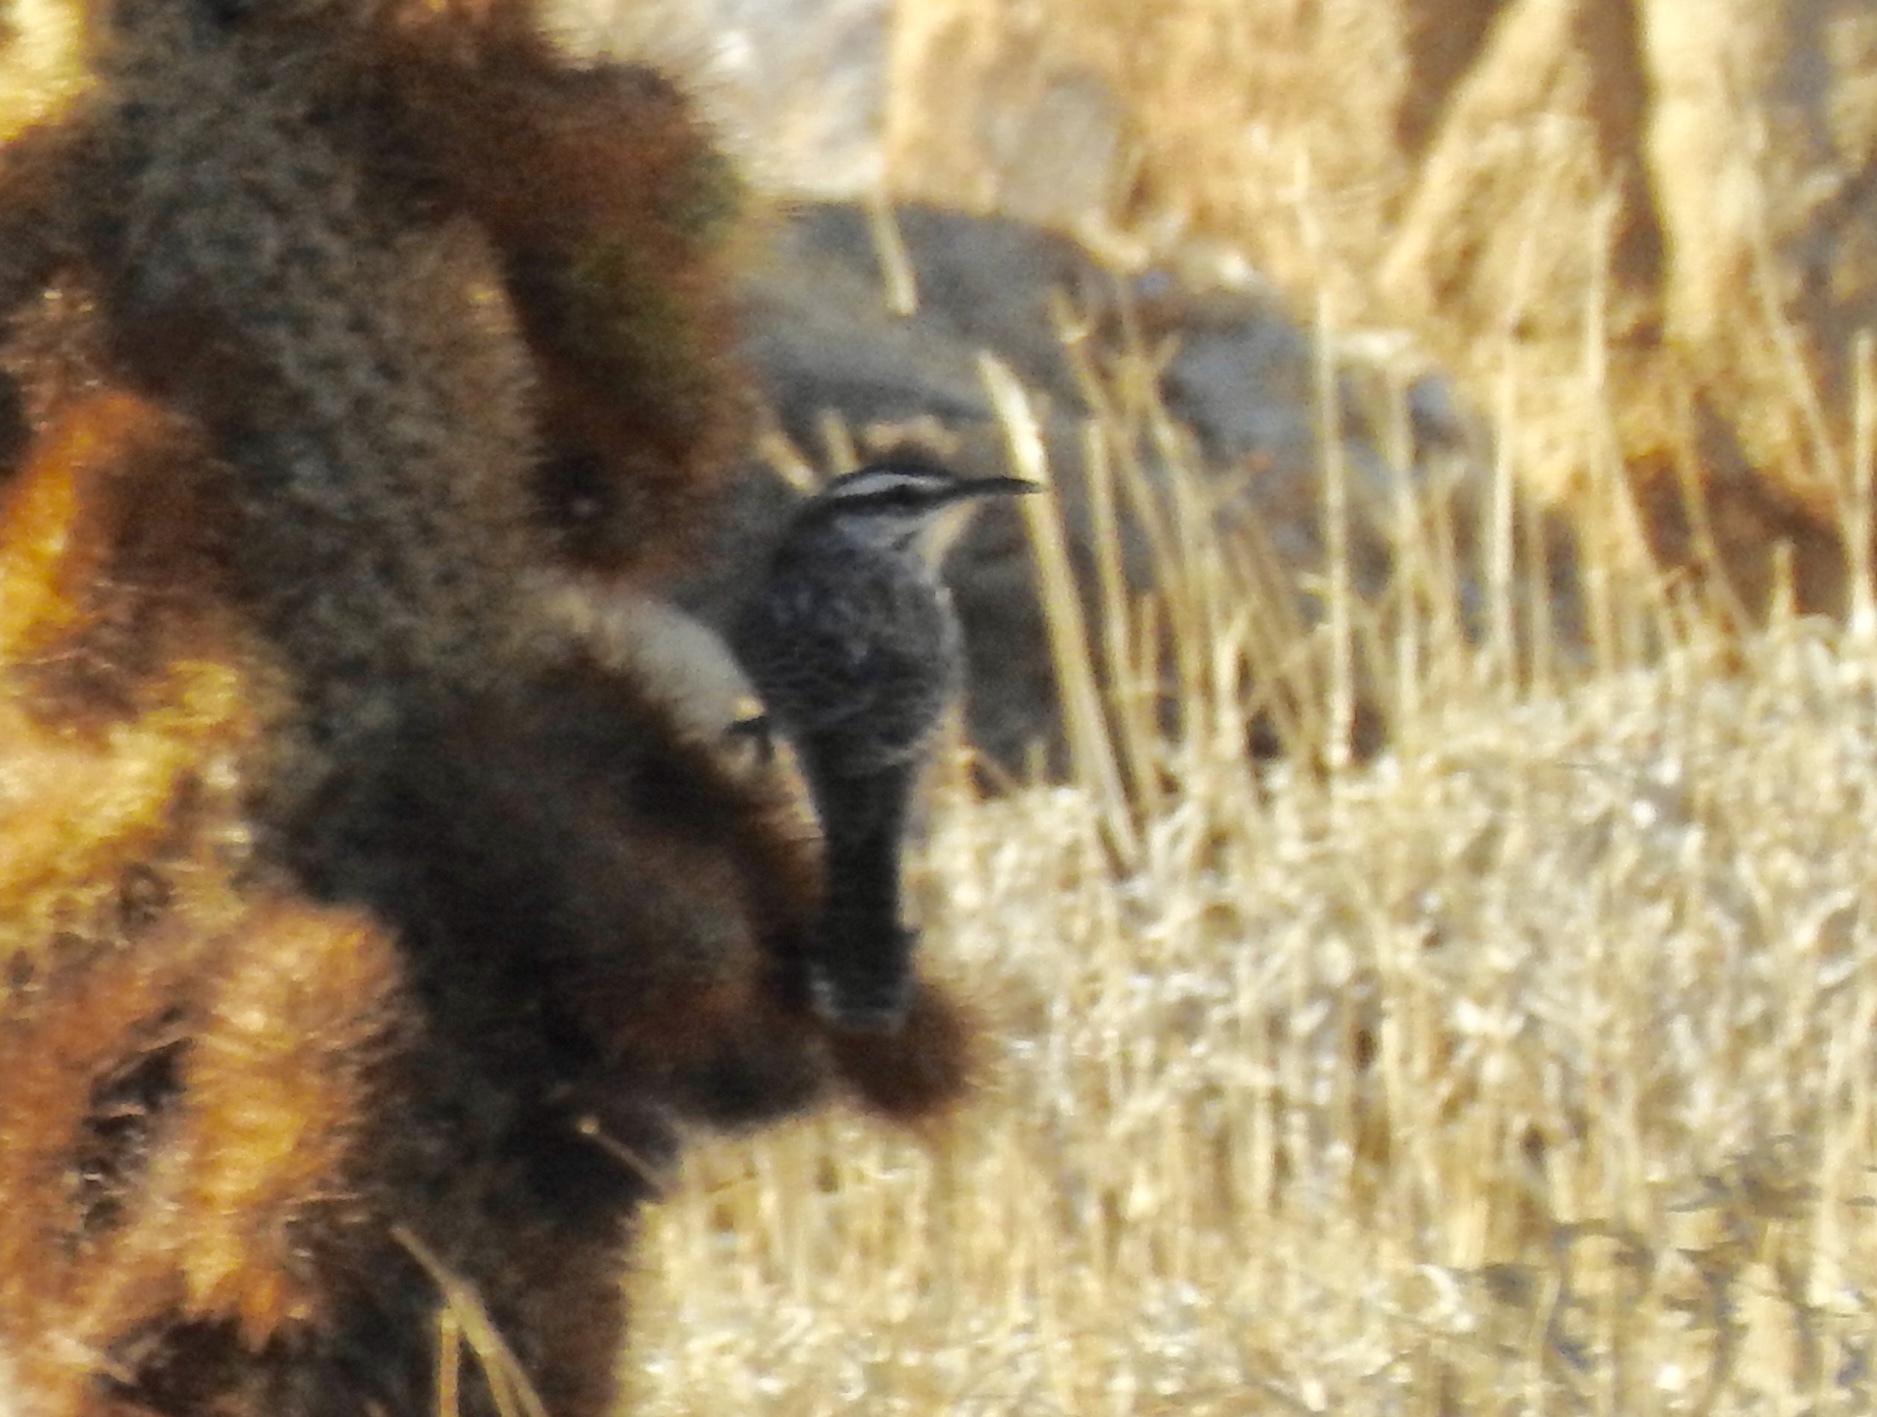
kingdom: Animalia
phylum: Chordata
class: Aves
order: Passeriformes
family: Troglodytidae
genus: Campylorhynchus
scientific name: Campylorhynchus brunneicapillus
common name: Cactus wren
